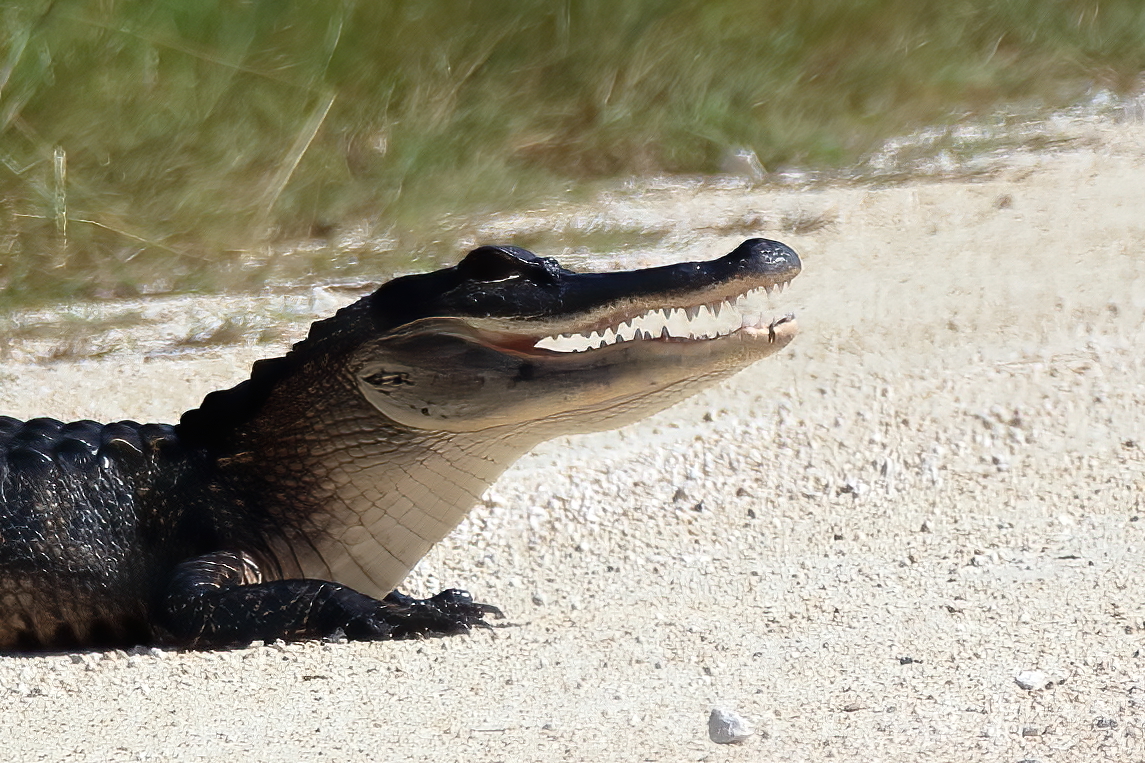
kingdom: Animalia
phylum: Chordata
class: Crocodylia
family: Alligatoridae
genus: Alligator
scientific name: Alligator mississippiensis
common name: American alligator
